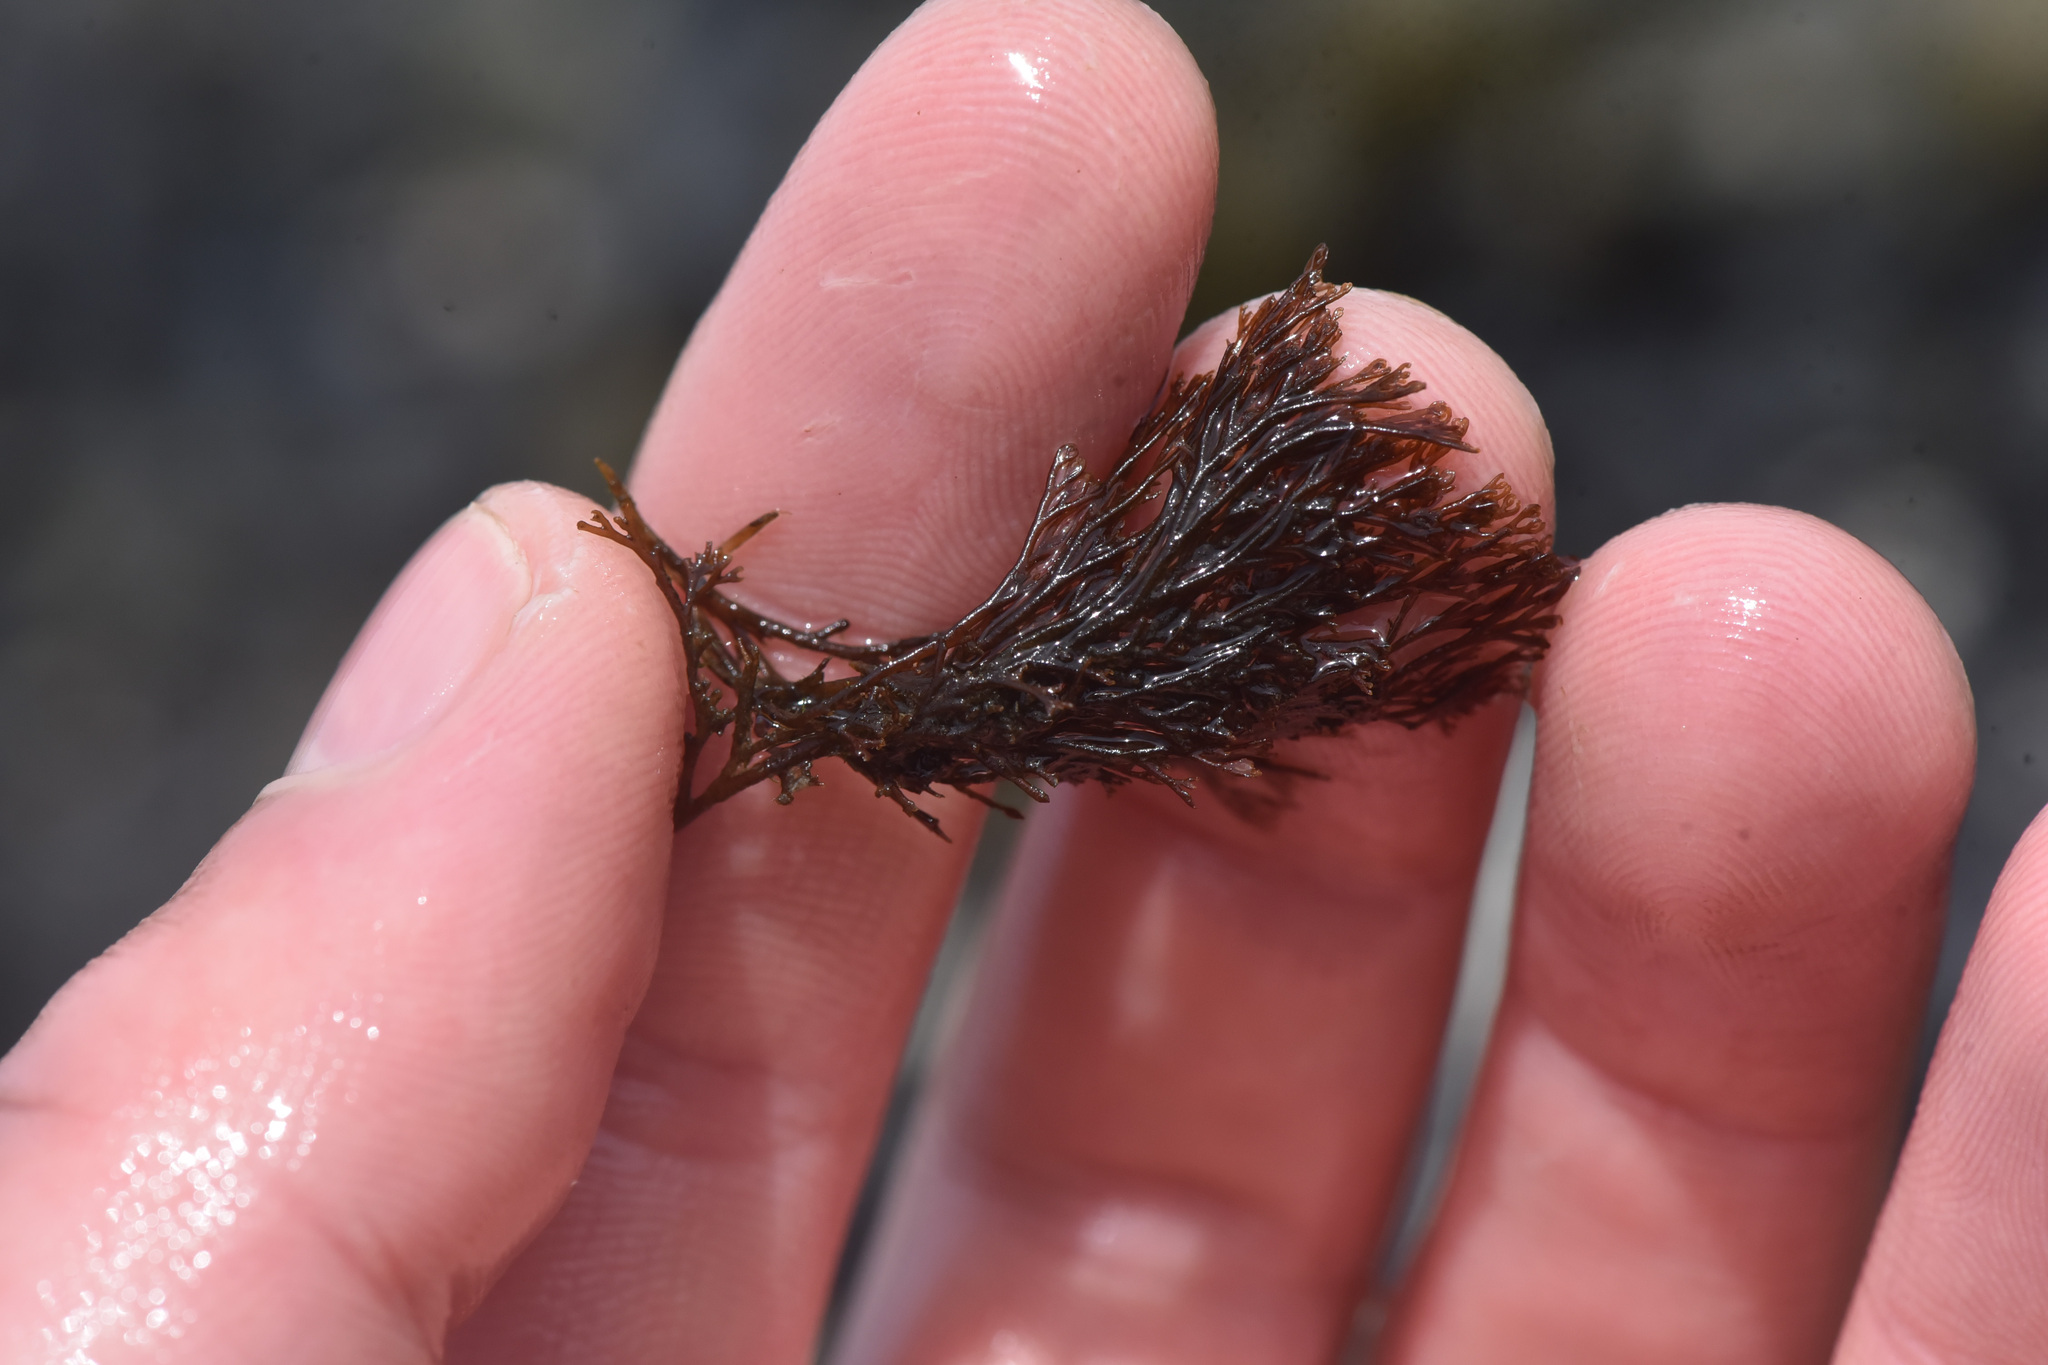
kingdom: Plantae
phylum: Rhodophyta
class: Florideophyceae
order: Ceramiales
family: Ceramiaceae
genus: Microcladia
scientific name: Microcladia borealis
